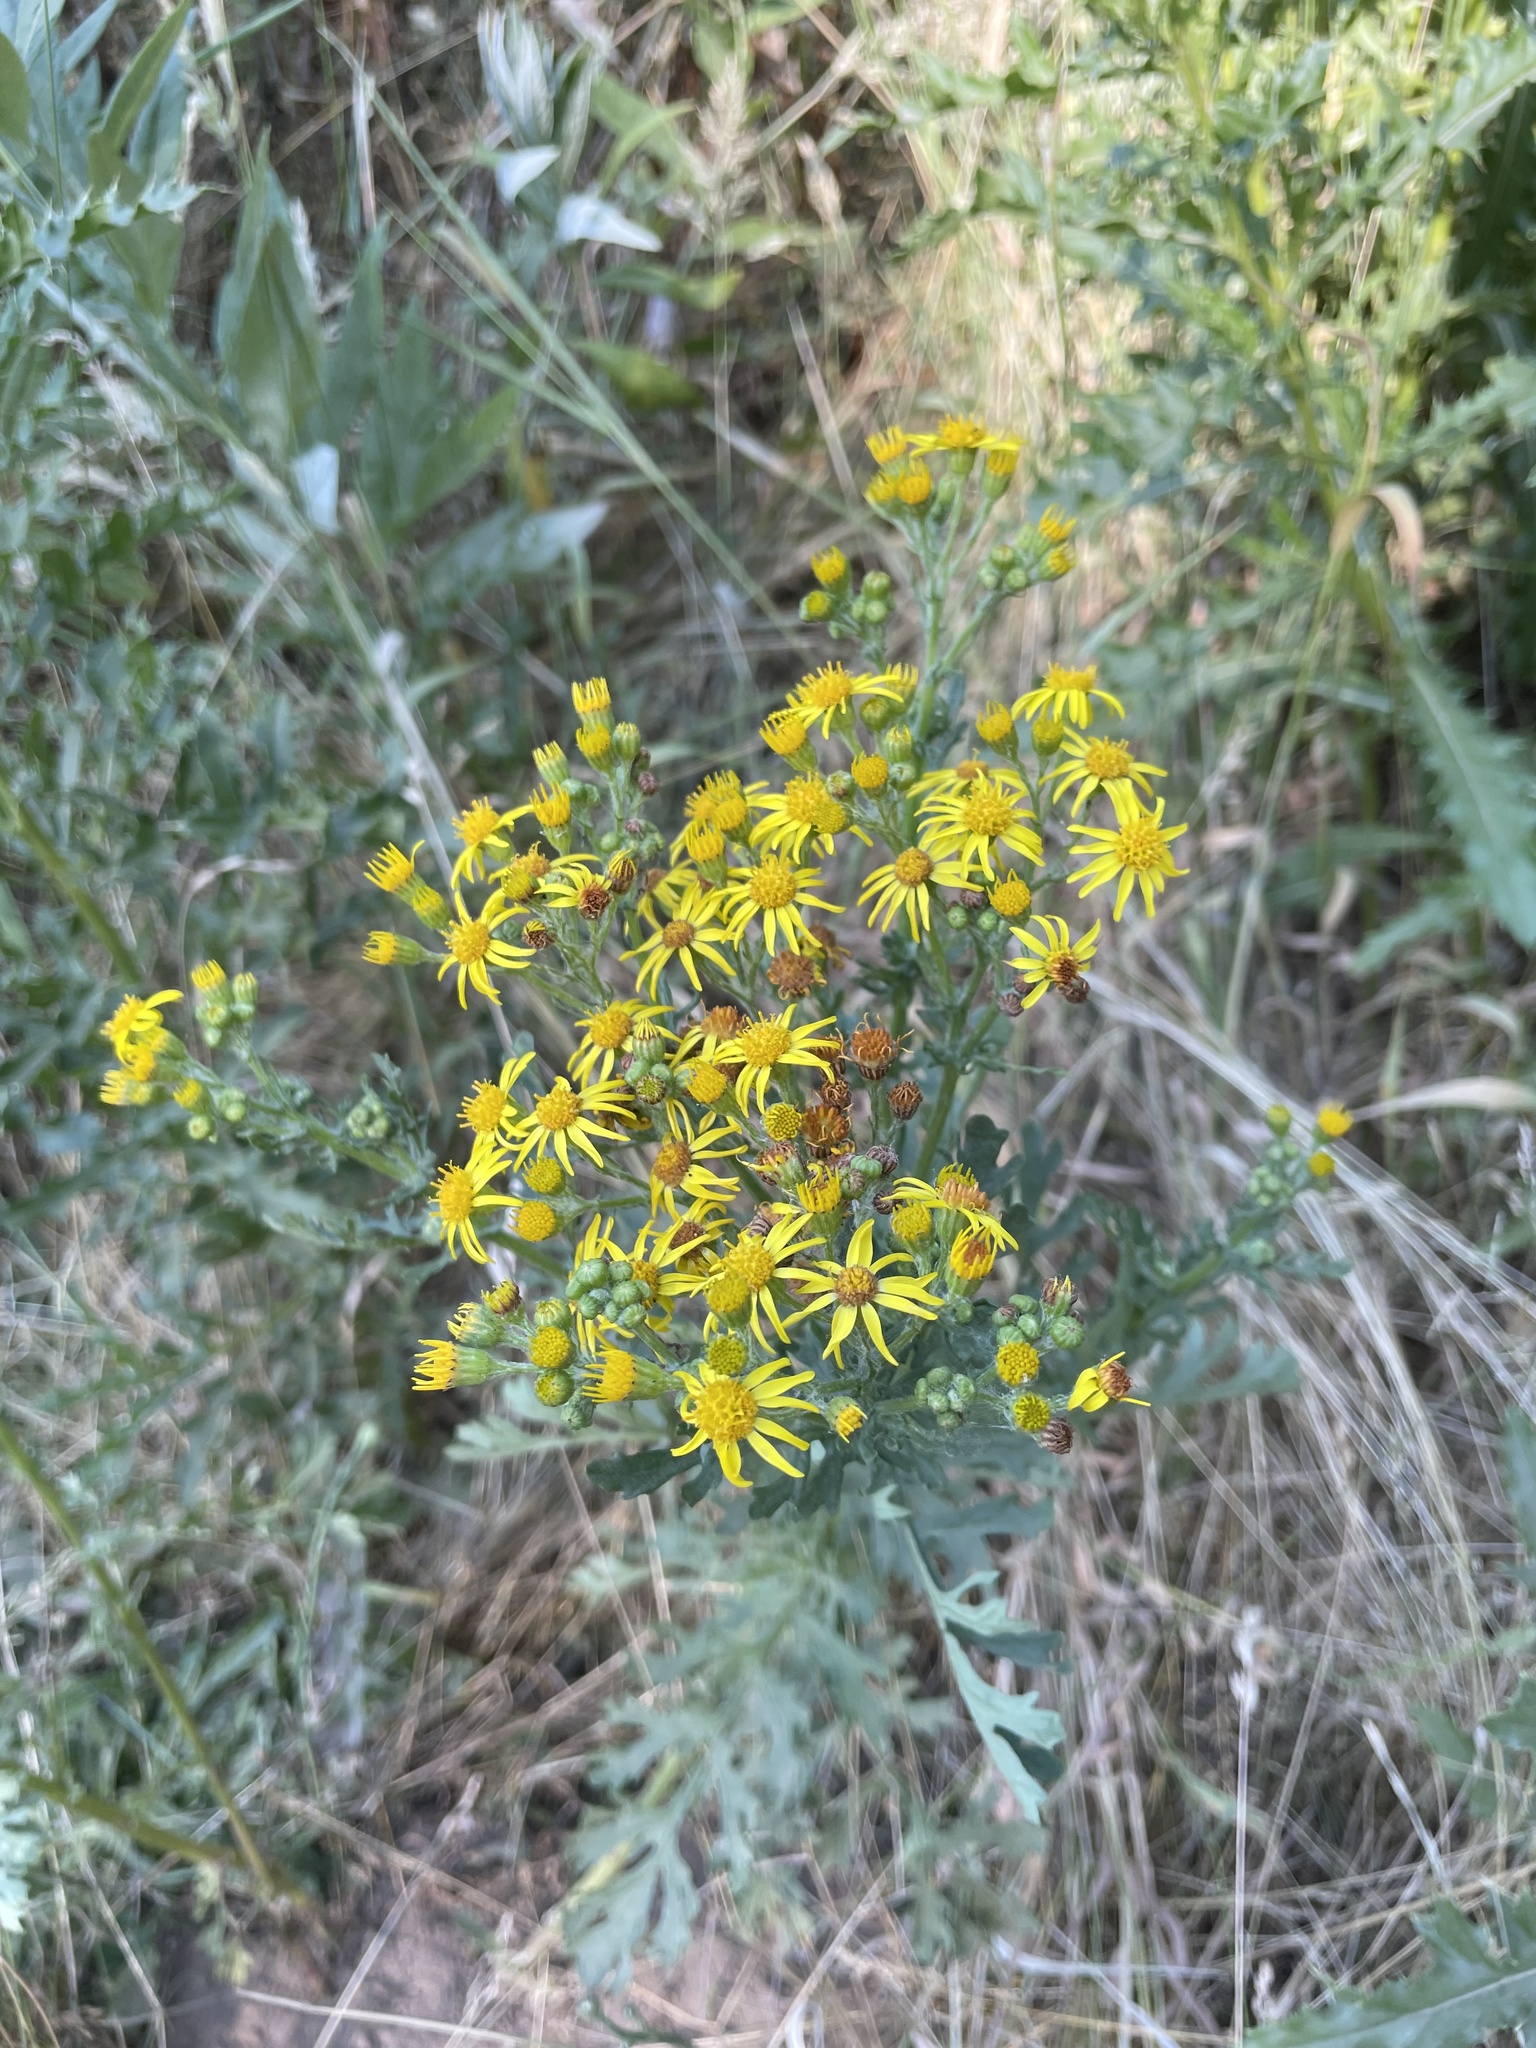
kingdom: Plantae
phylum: Tracheophyta
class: Magnoliopsida
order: Asterales
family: Asteraceae
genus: Jacobaea
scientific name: Jacobaea vulgaris
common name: Stinking willie
